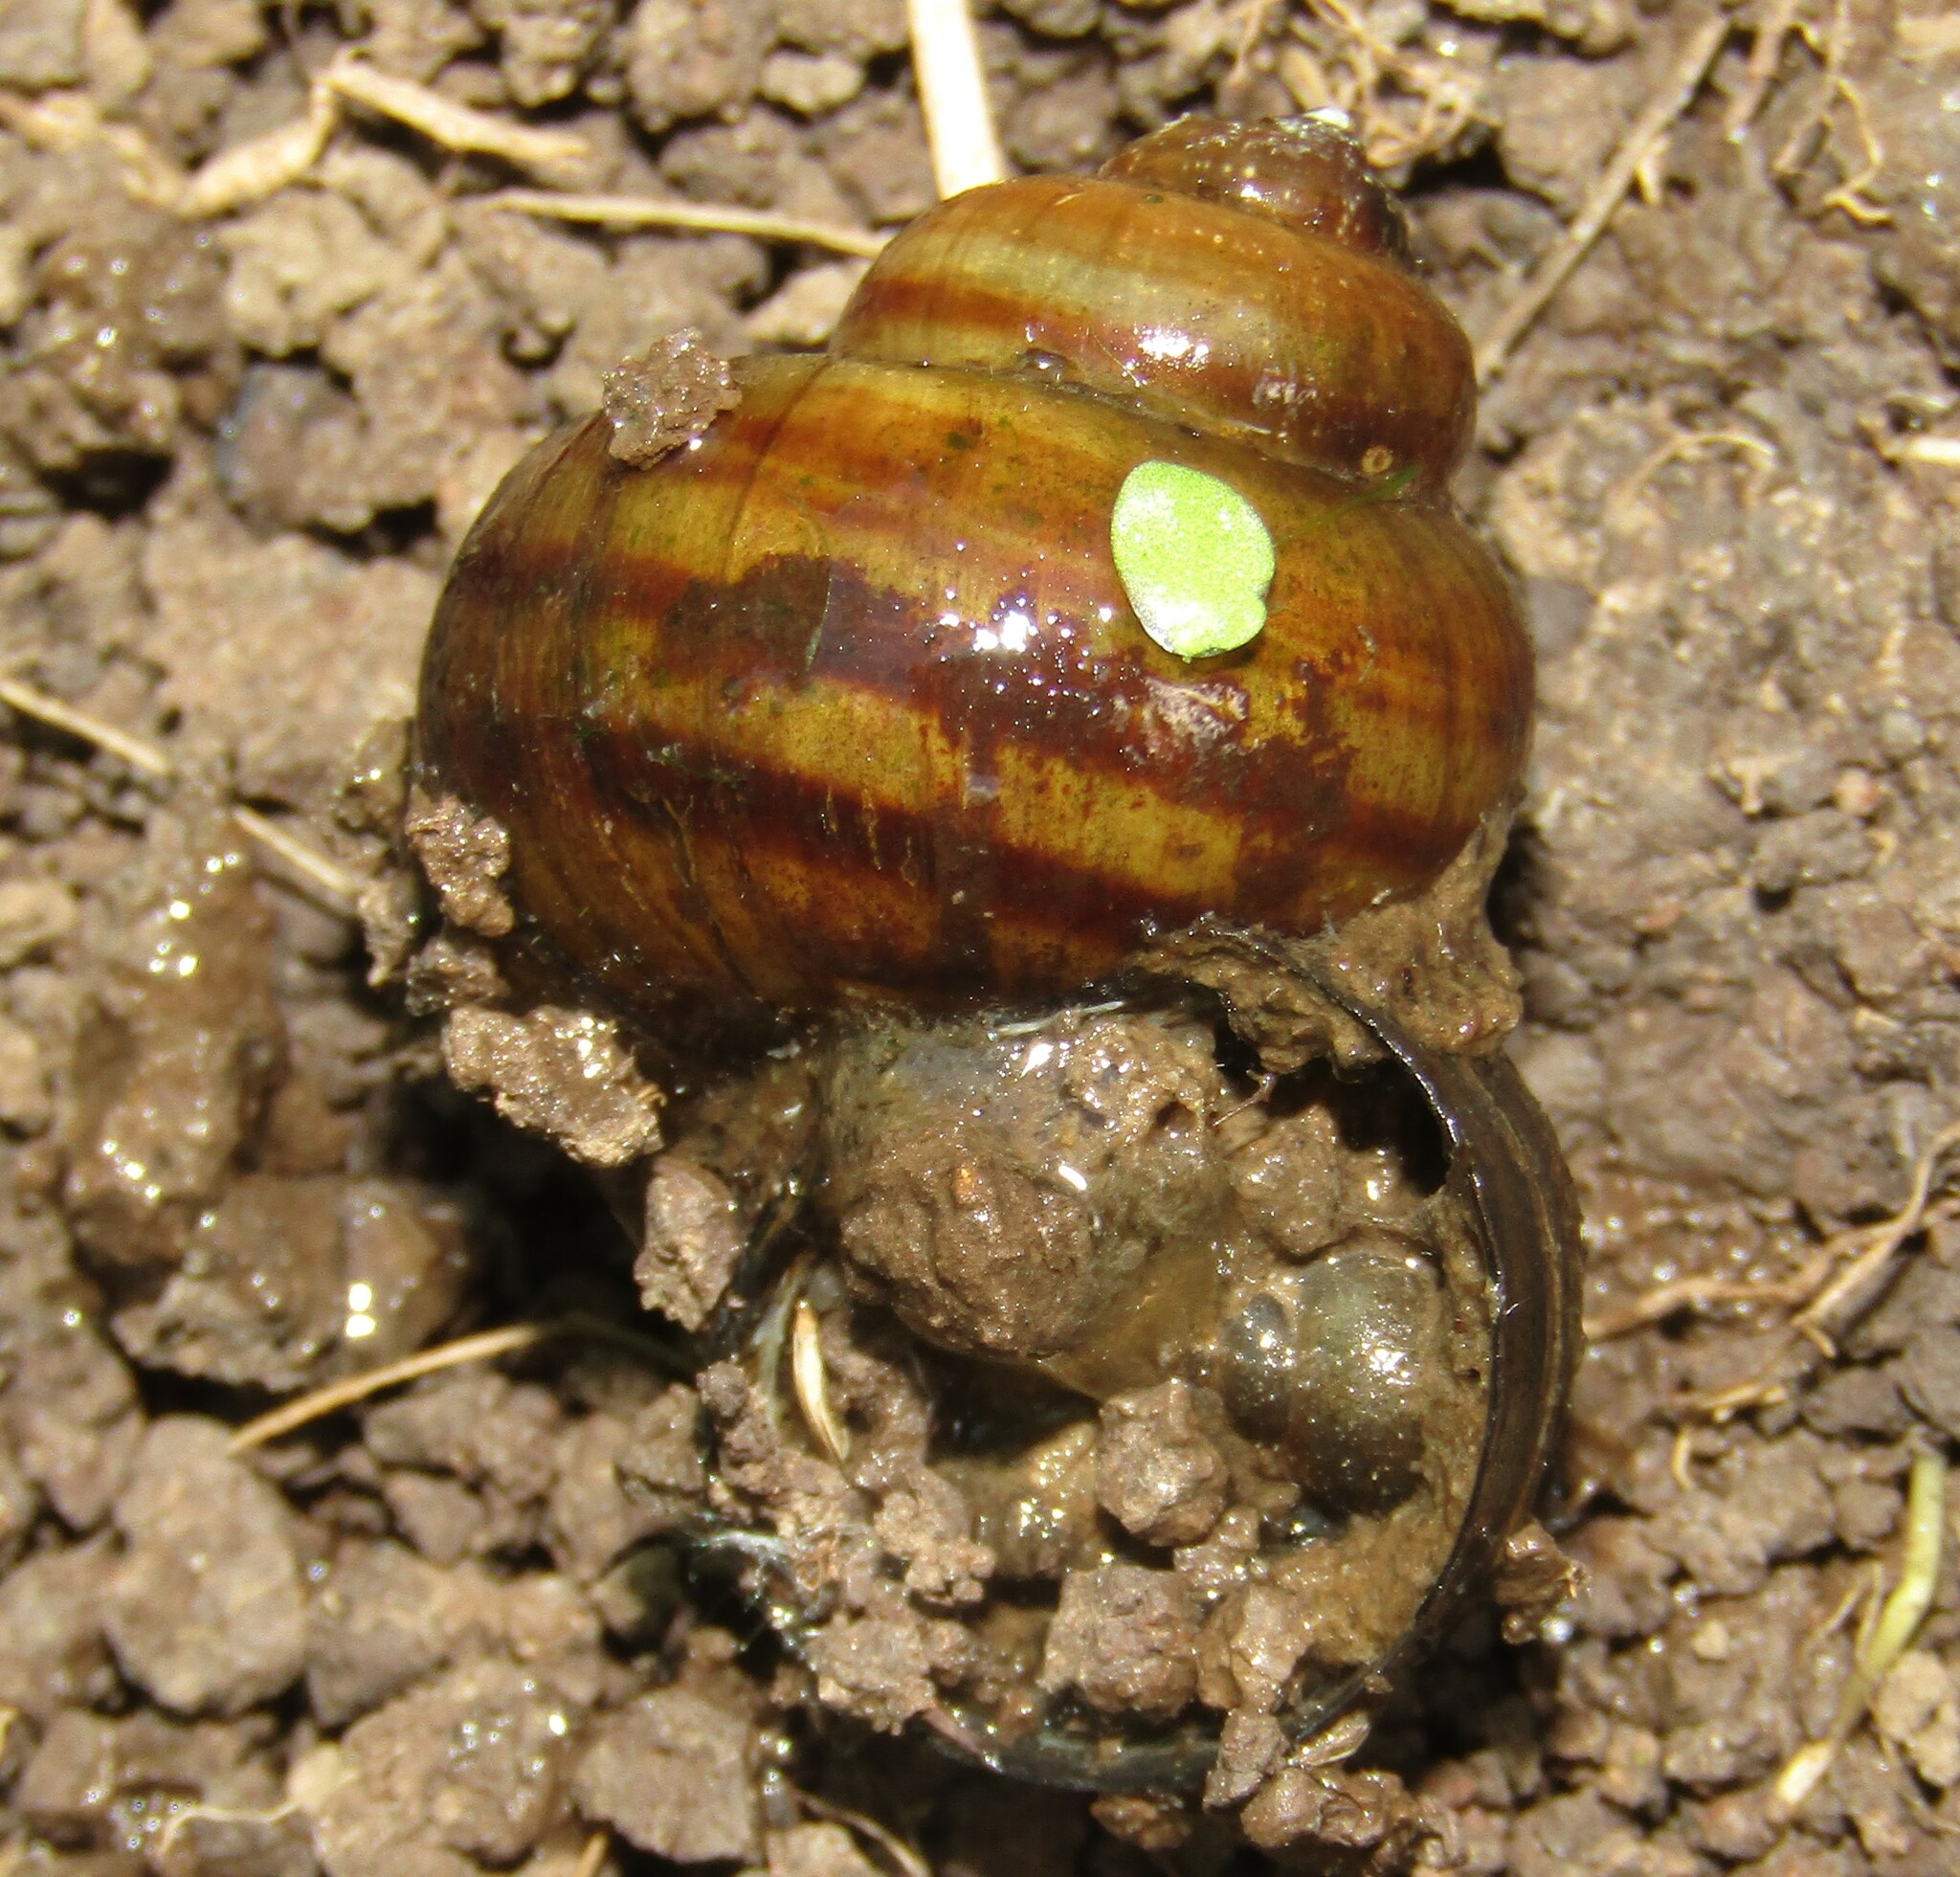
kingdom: Animalia
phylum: Mollusca
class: Gastropoda
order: Architaenioglossa
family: Viviparidae
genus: Viviparus
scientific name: Viviparus contectus
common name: Lister's river snail
